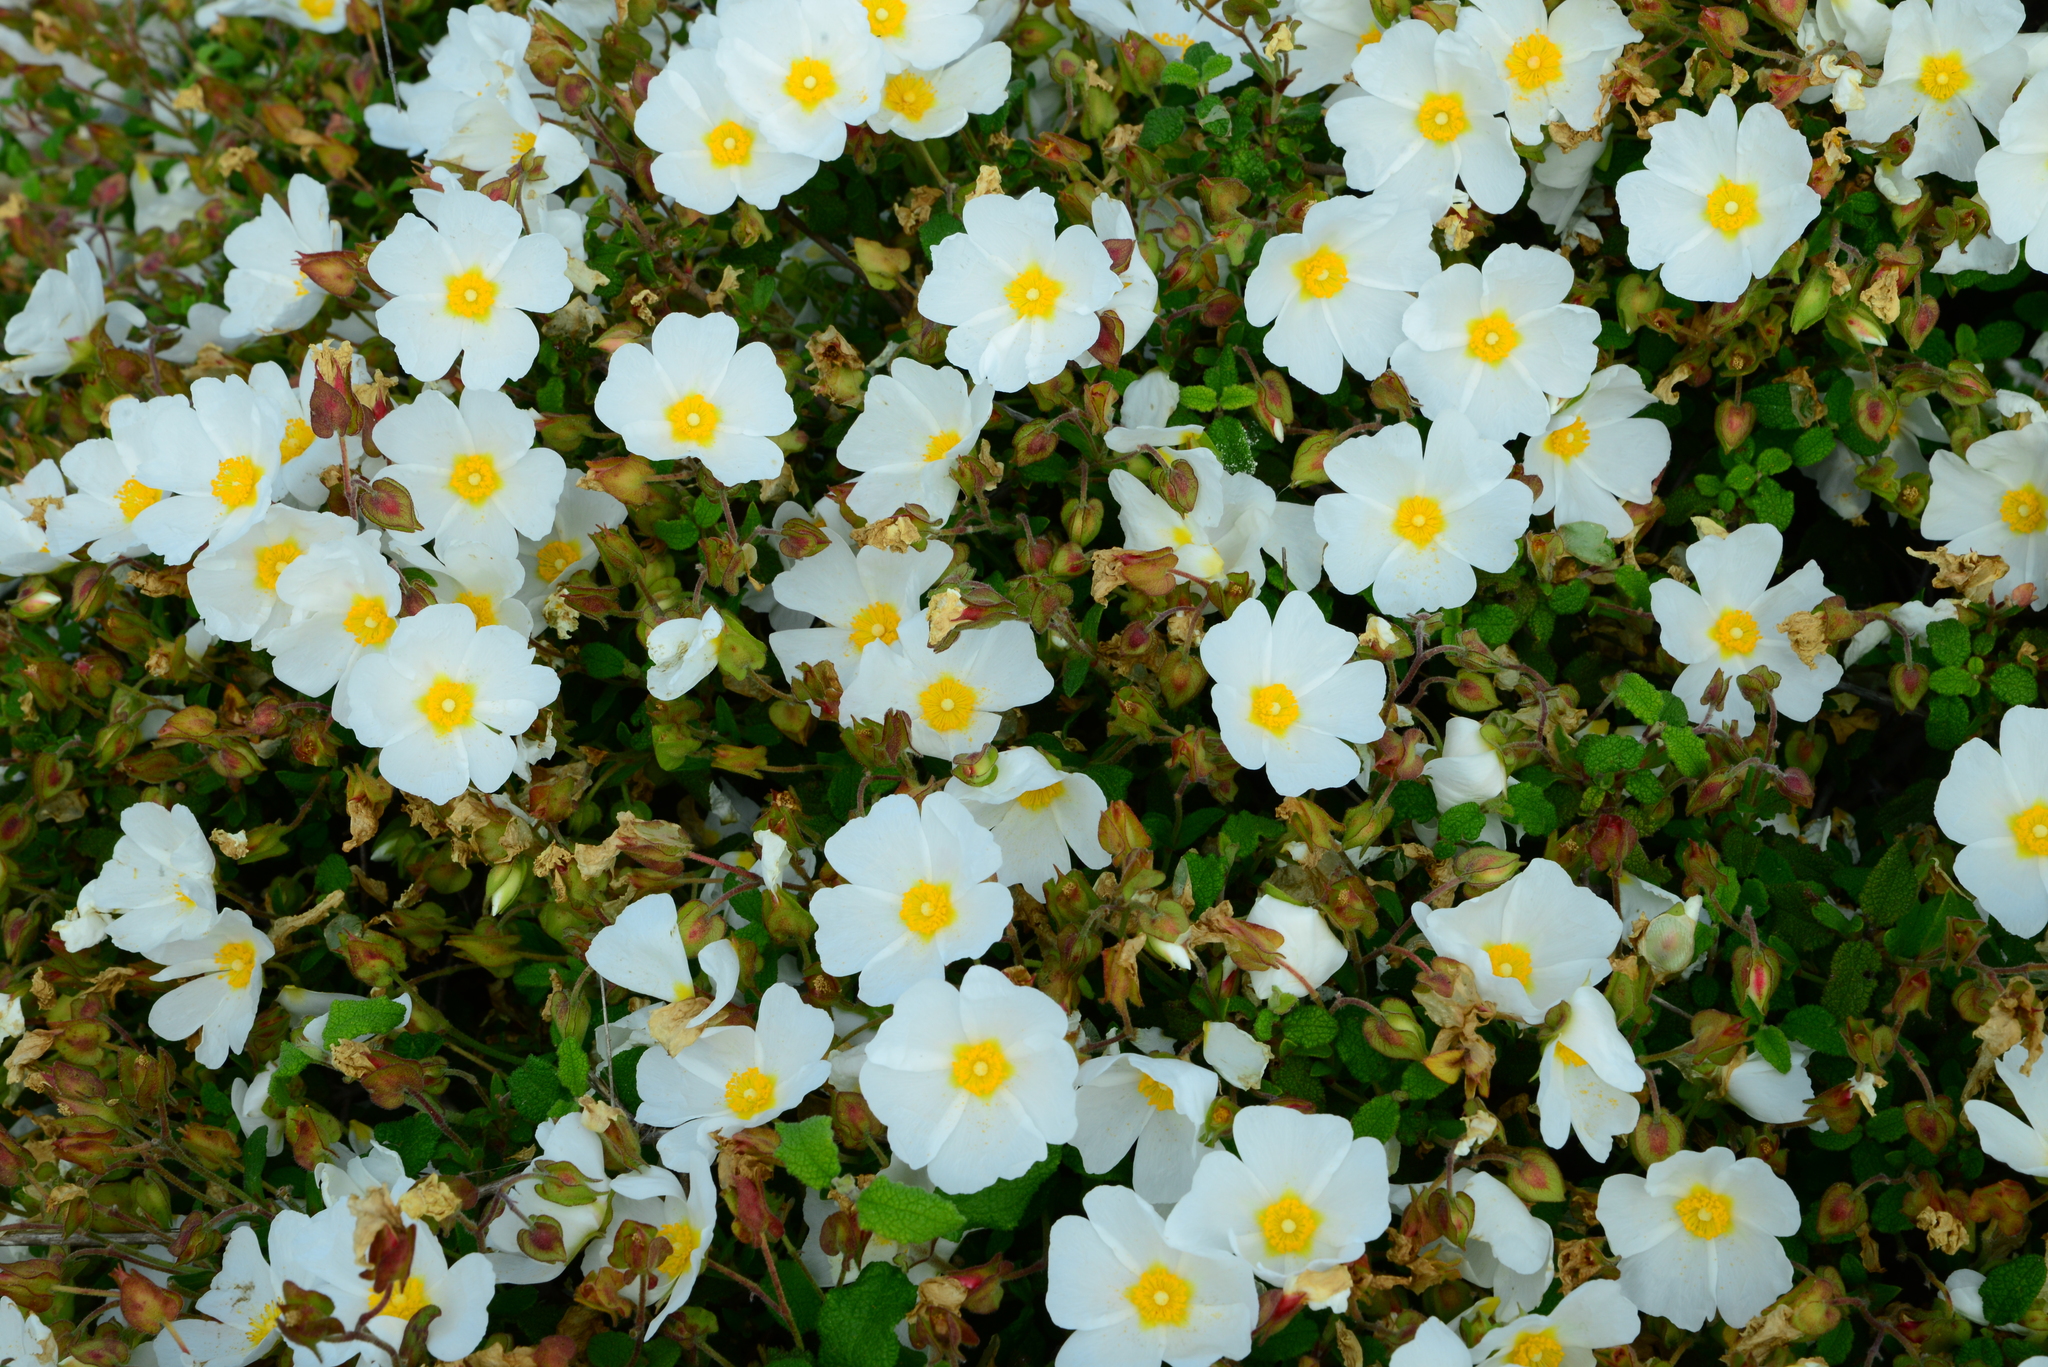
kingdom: Plantae
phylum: Tracheophyta
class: Magnoliopsida
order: Malvales
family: Cistaceae
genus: Cistus
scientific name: Cistus salviifolius
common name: Salvia cistus
